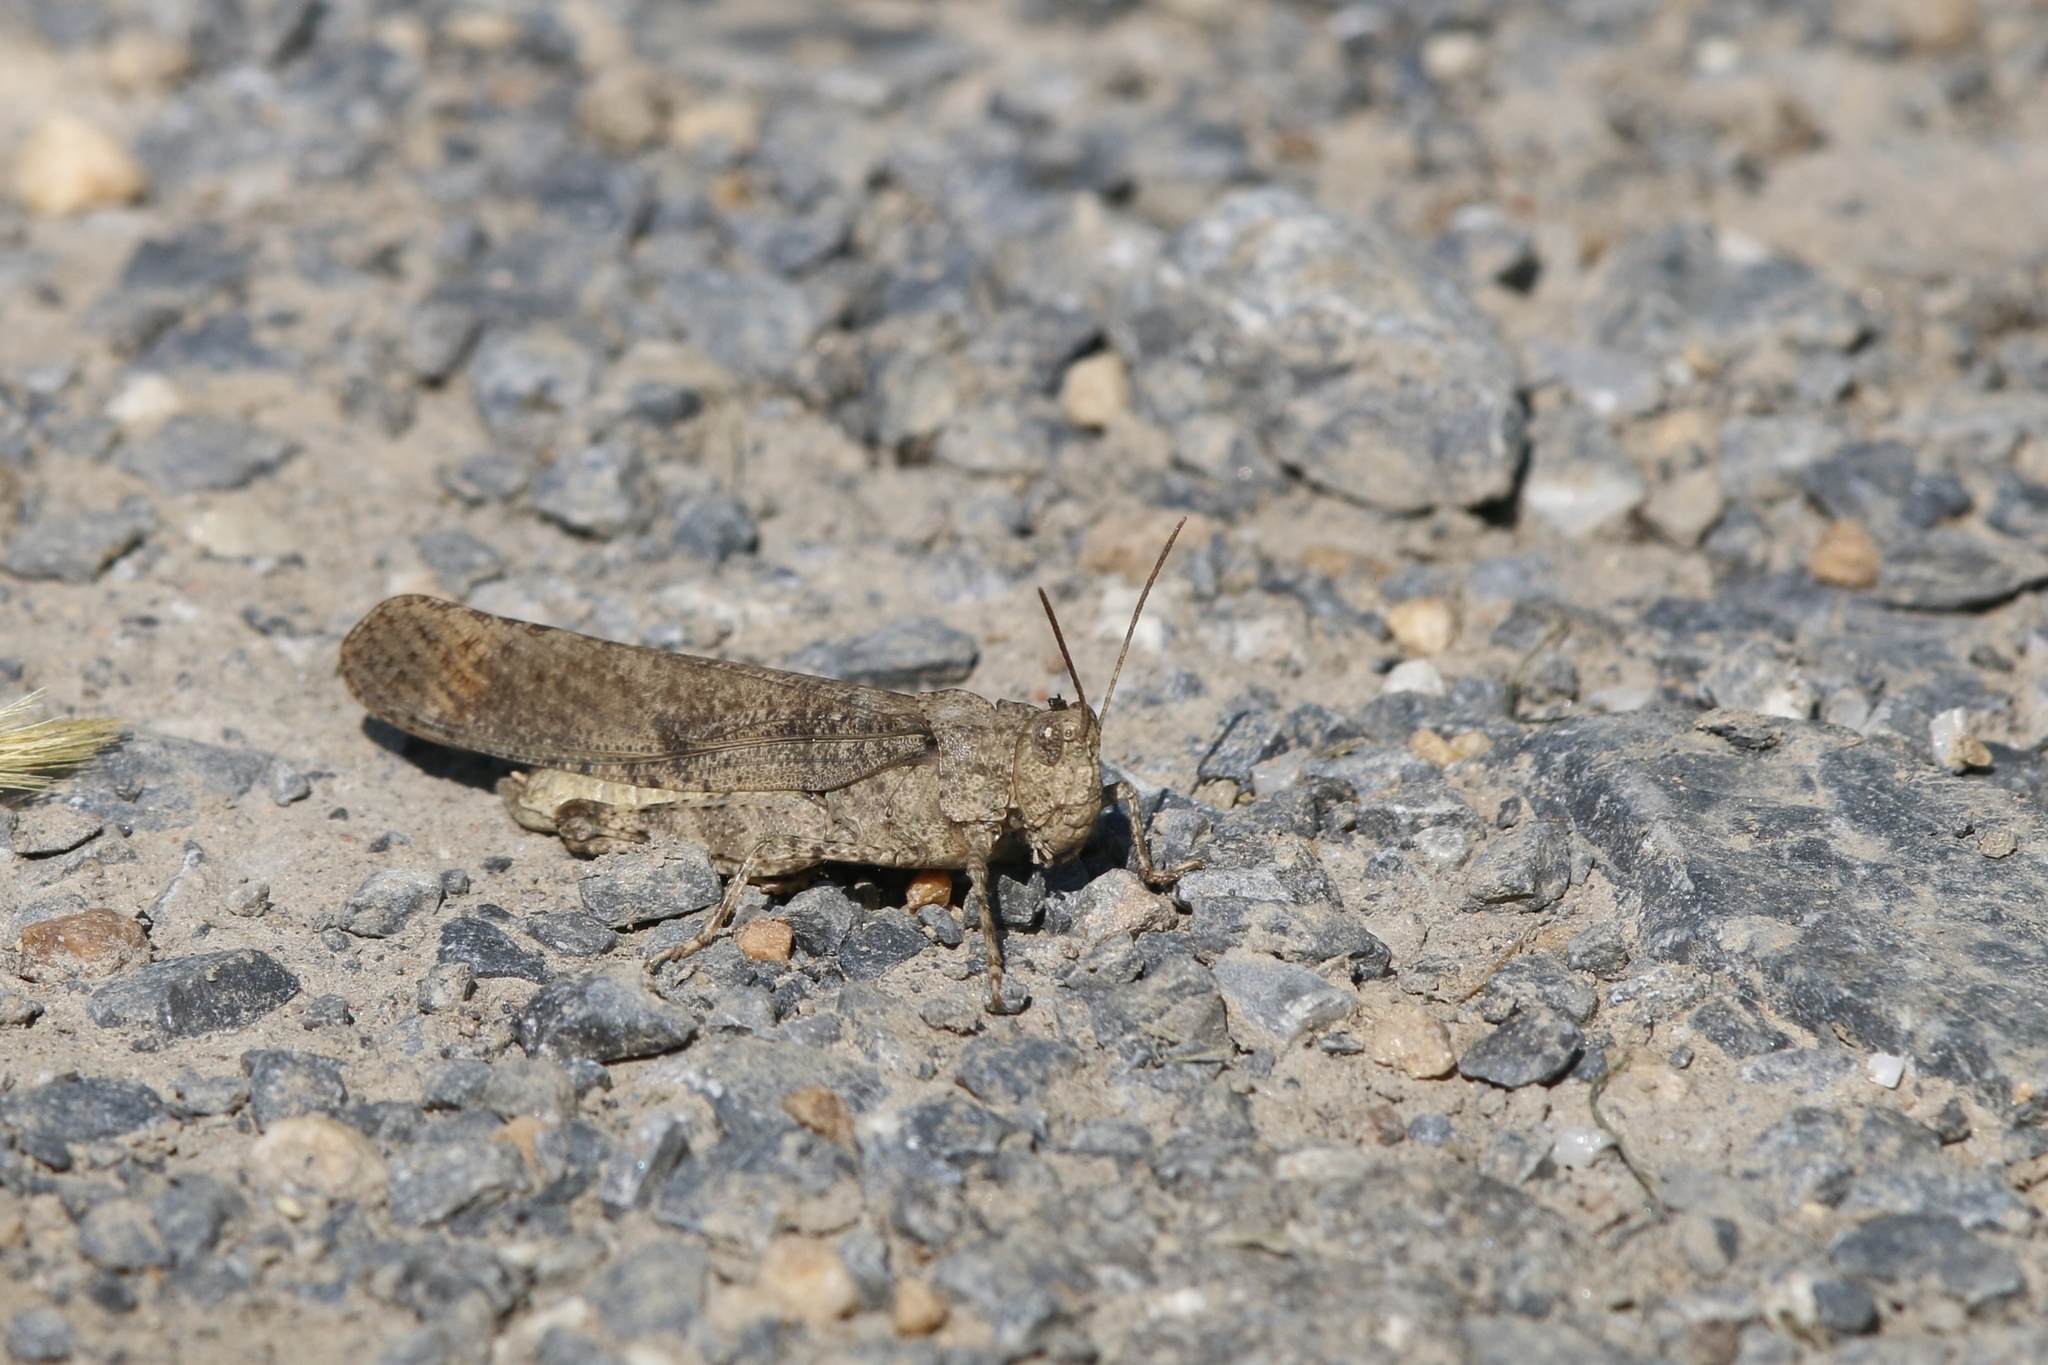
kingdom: Animalia
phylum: Arthropoda
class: Insecta
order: Orthoptera
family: Acrididae
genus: Dissosteira
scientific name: Dissosteira carolina
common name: Carolina grasshopper
